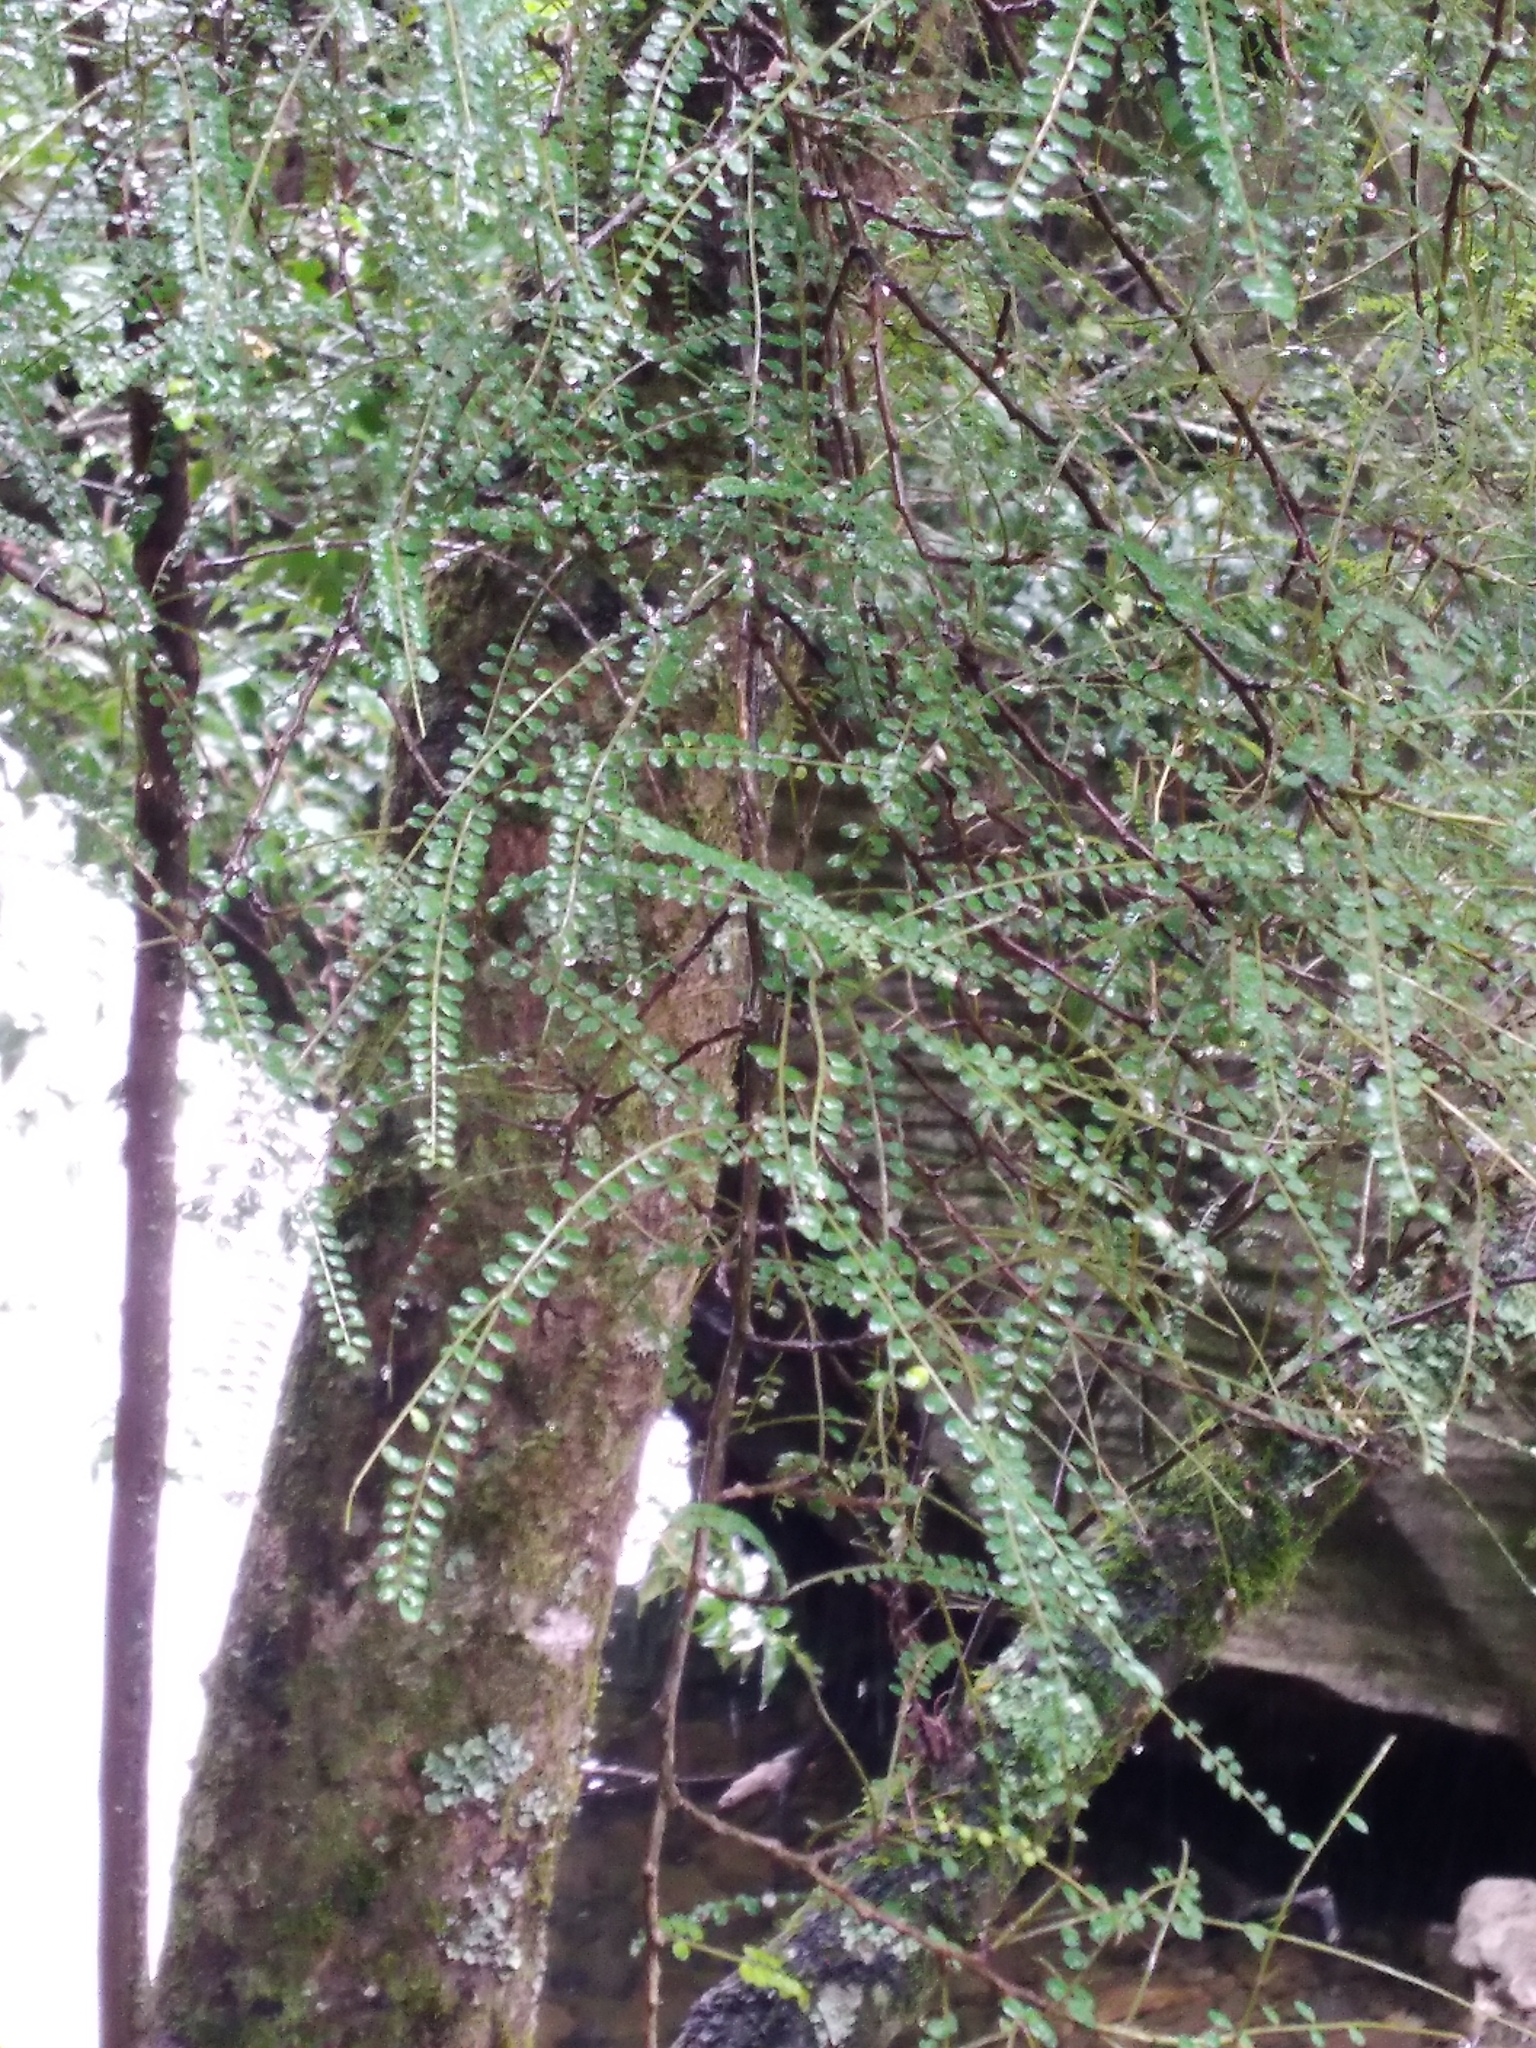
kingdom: Plantae
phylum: Tracheophyta
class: Magnoliopsida
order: Fabales
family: Fabaceae
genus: Sophora
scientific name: Sophora longicarinata
